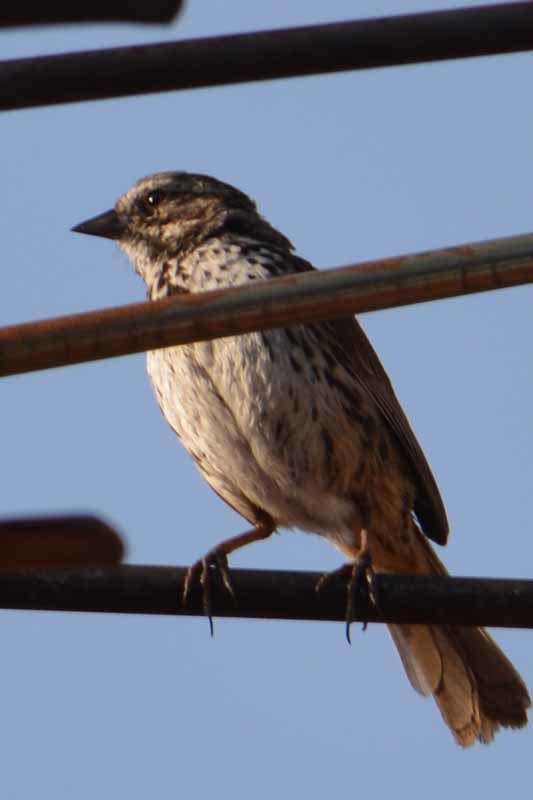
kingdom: Animalia
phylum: Chordata
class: Aves
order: Passeriformes
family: Passerellidae
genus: Melospiza
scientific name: Melospiza melodia
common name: Song sparrow
